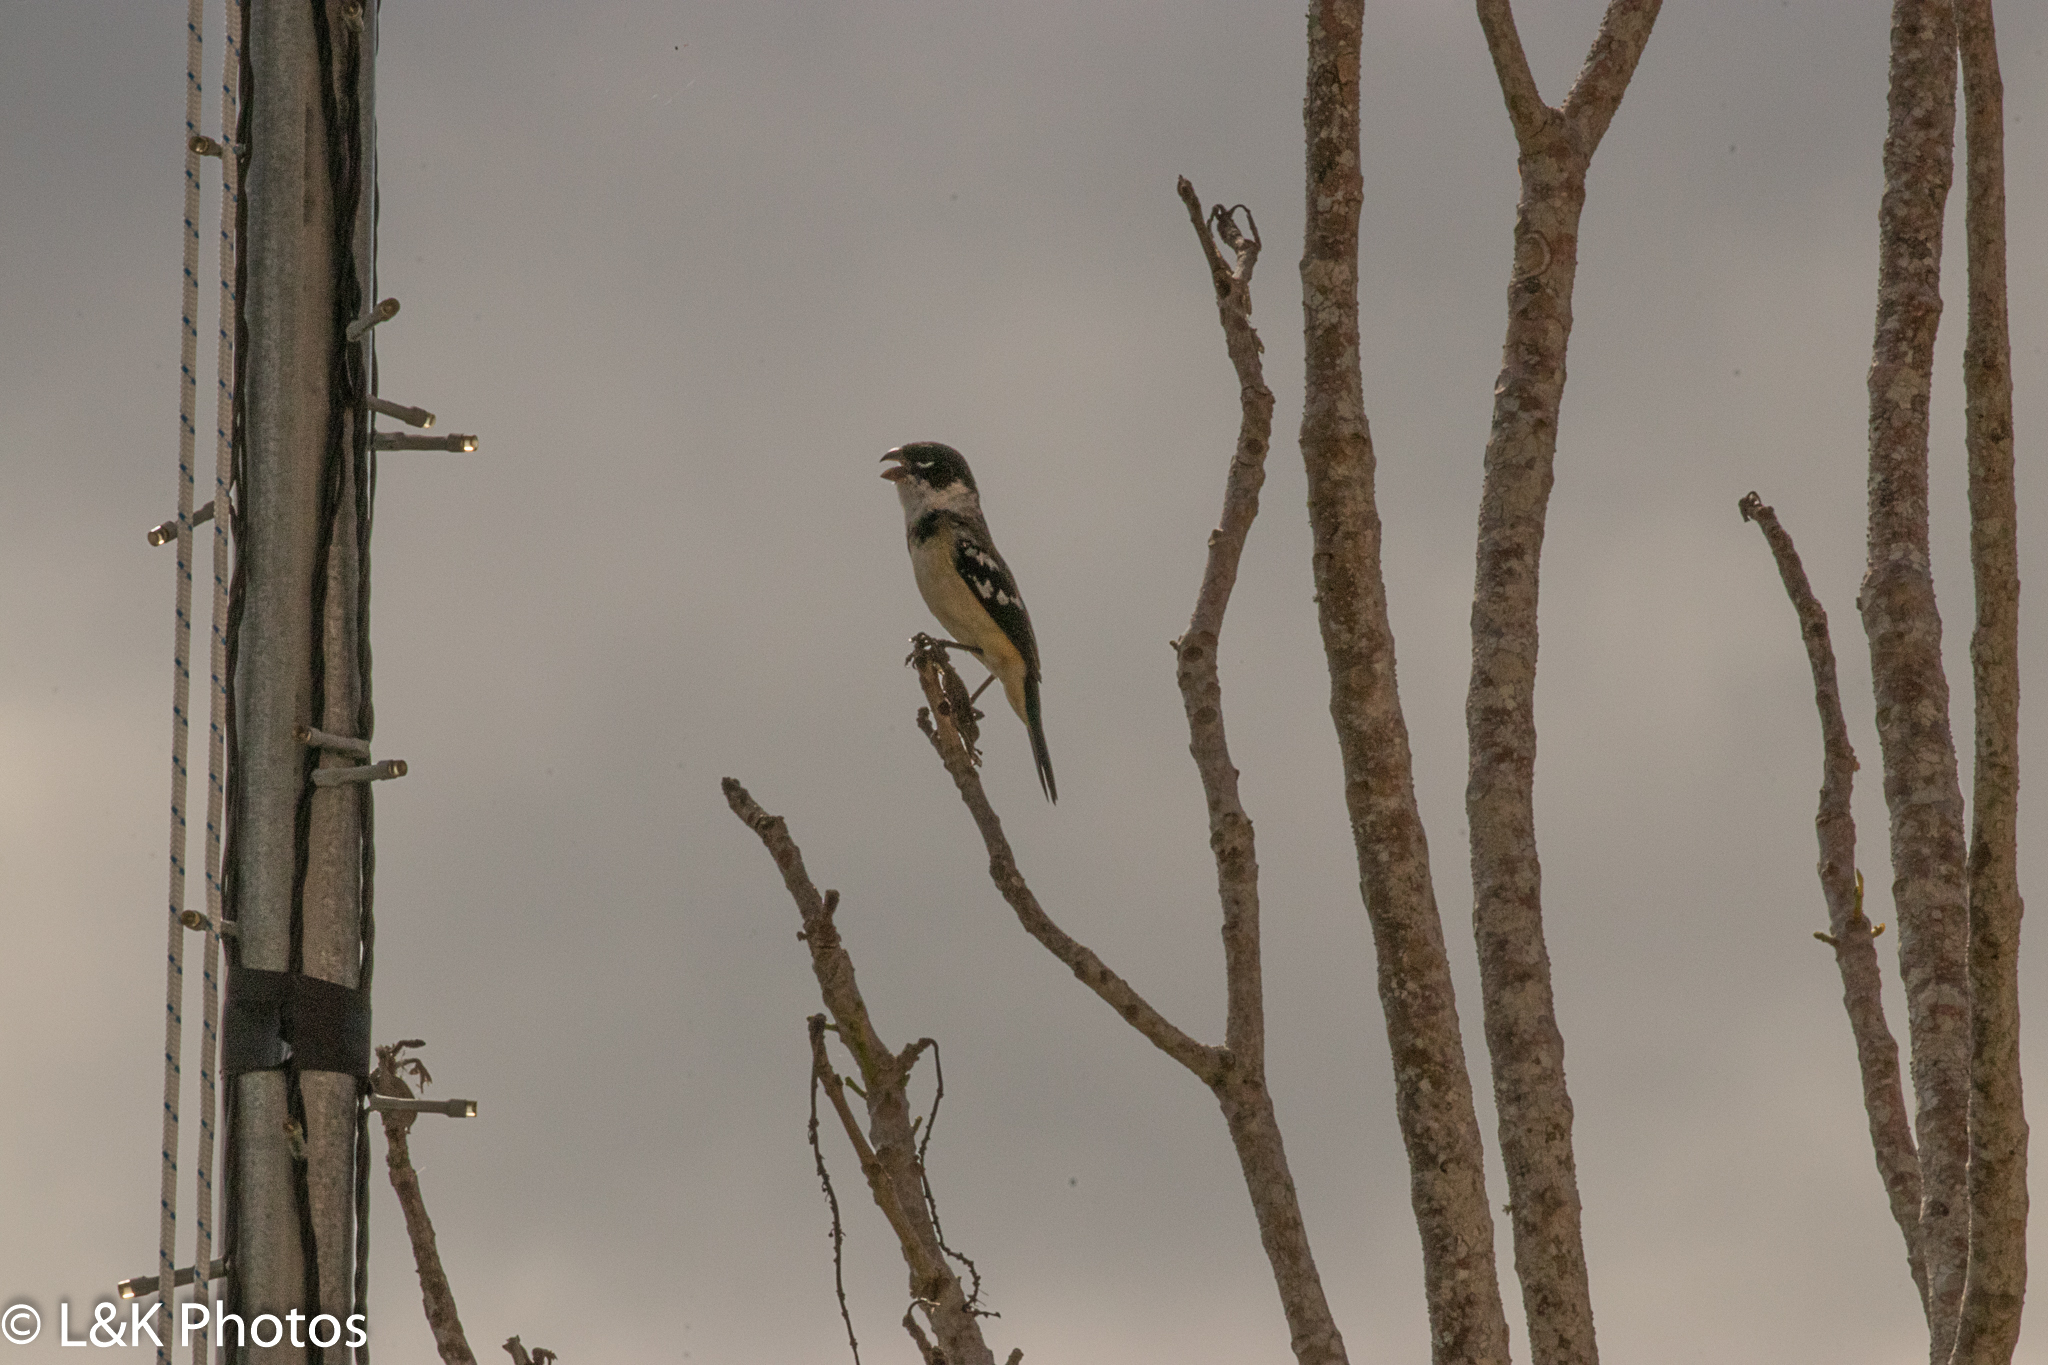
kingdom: Animalia
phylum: Chordata
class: Aves
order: Passeriformes
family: Thraupidae
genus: Sporophila
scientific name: Sporophila morelleti
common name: Morelet's seedeater
